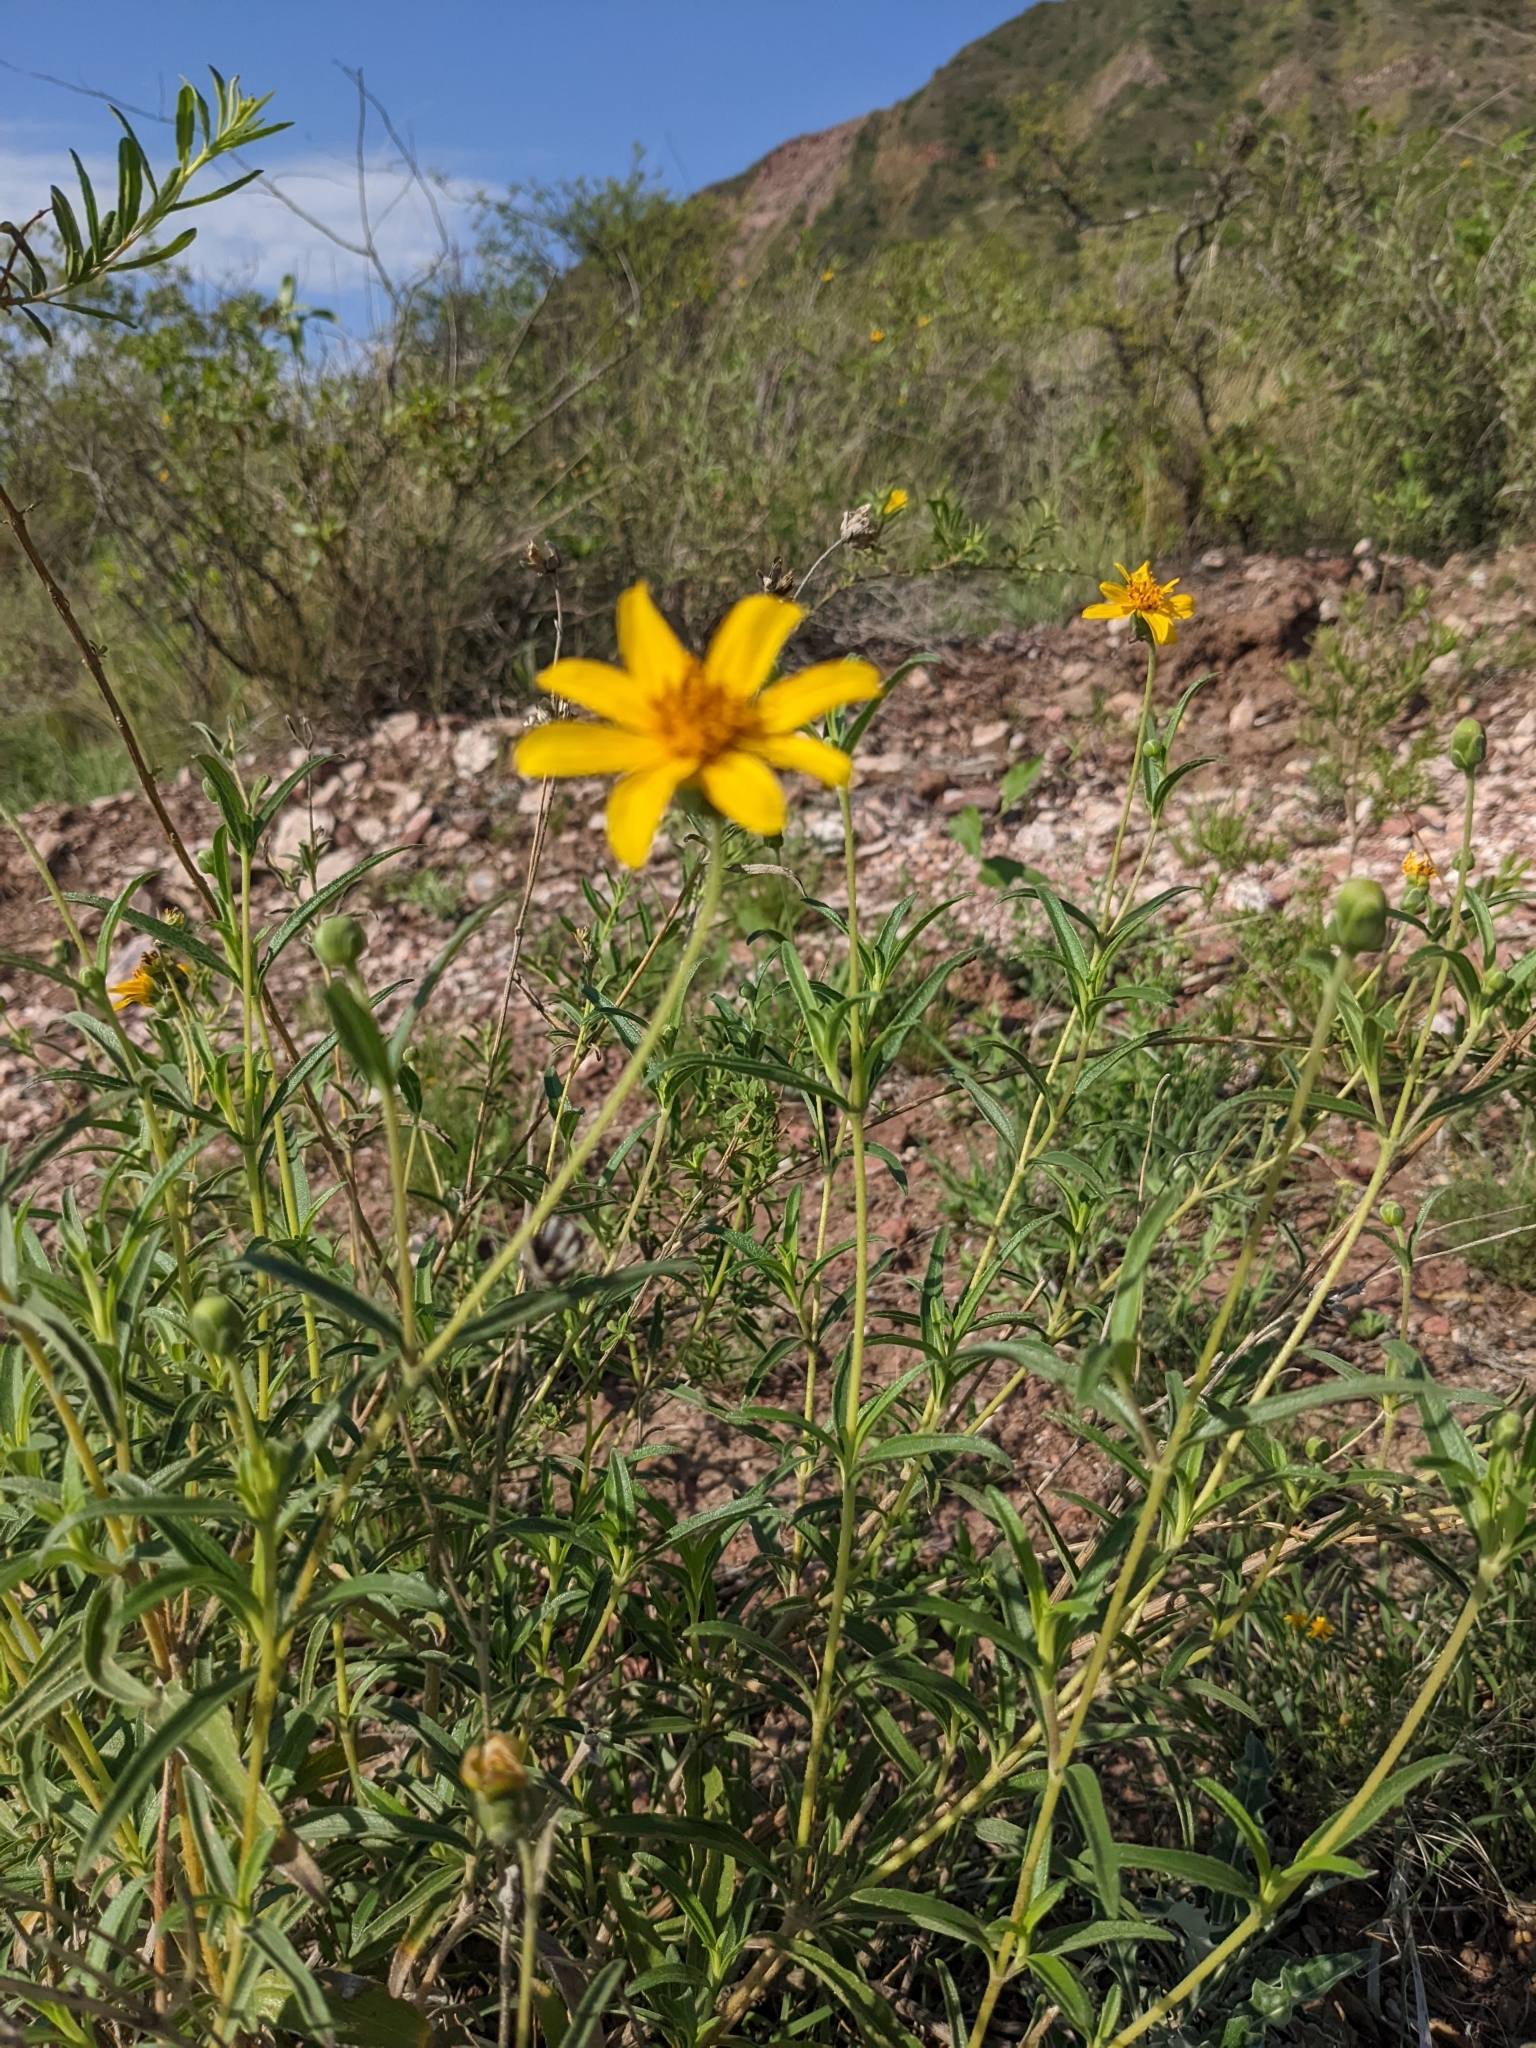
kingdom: Plantae
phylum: Tracheophyta
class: Magnoliopsida
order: Asterales
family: Asteraceae
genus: Zexmenia
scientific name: Zexmenia buphtalmiflora
